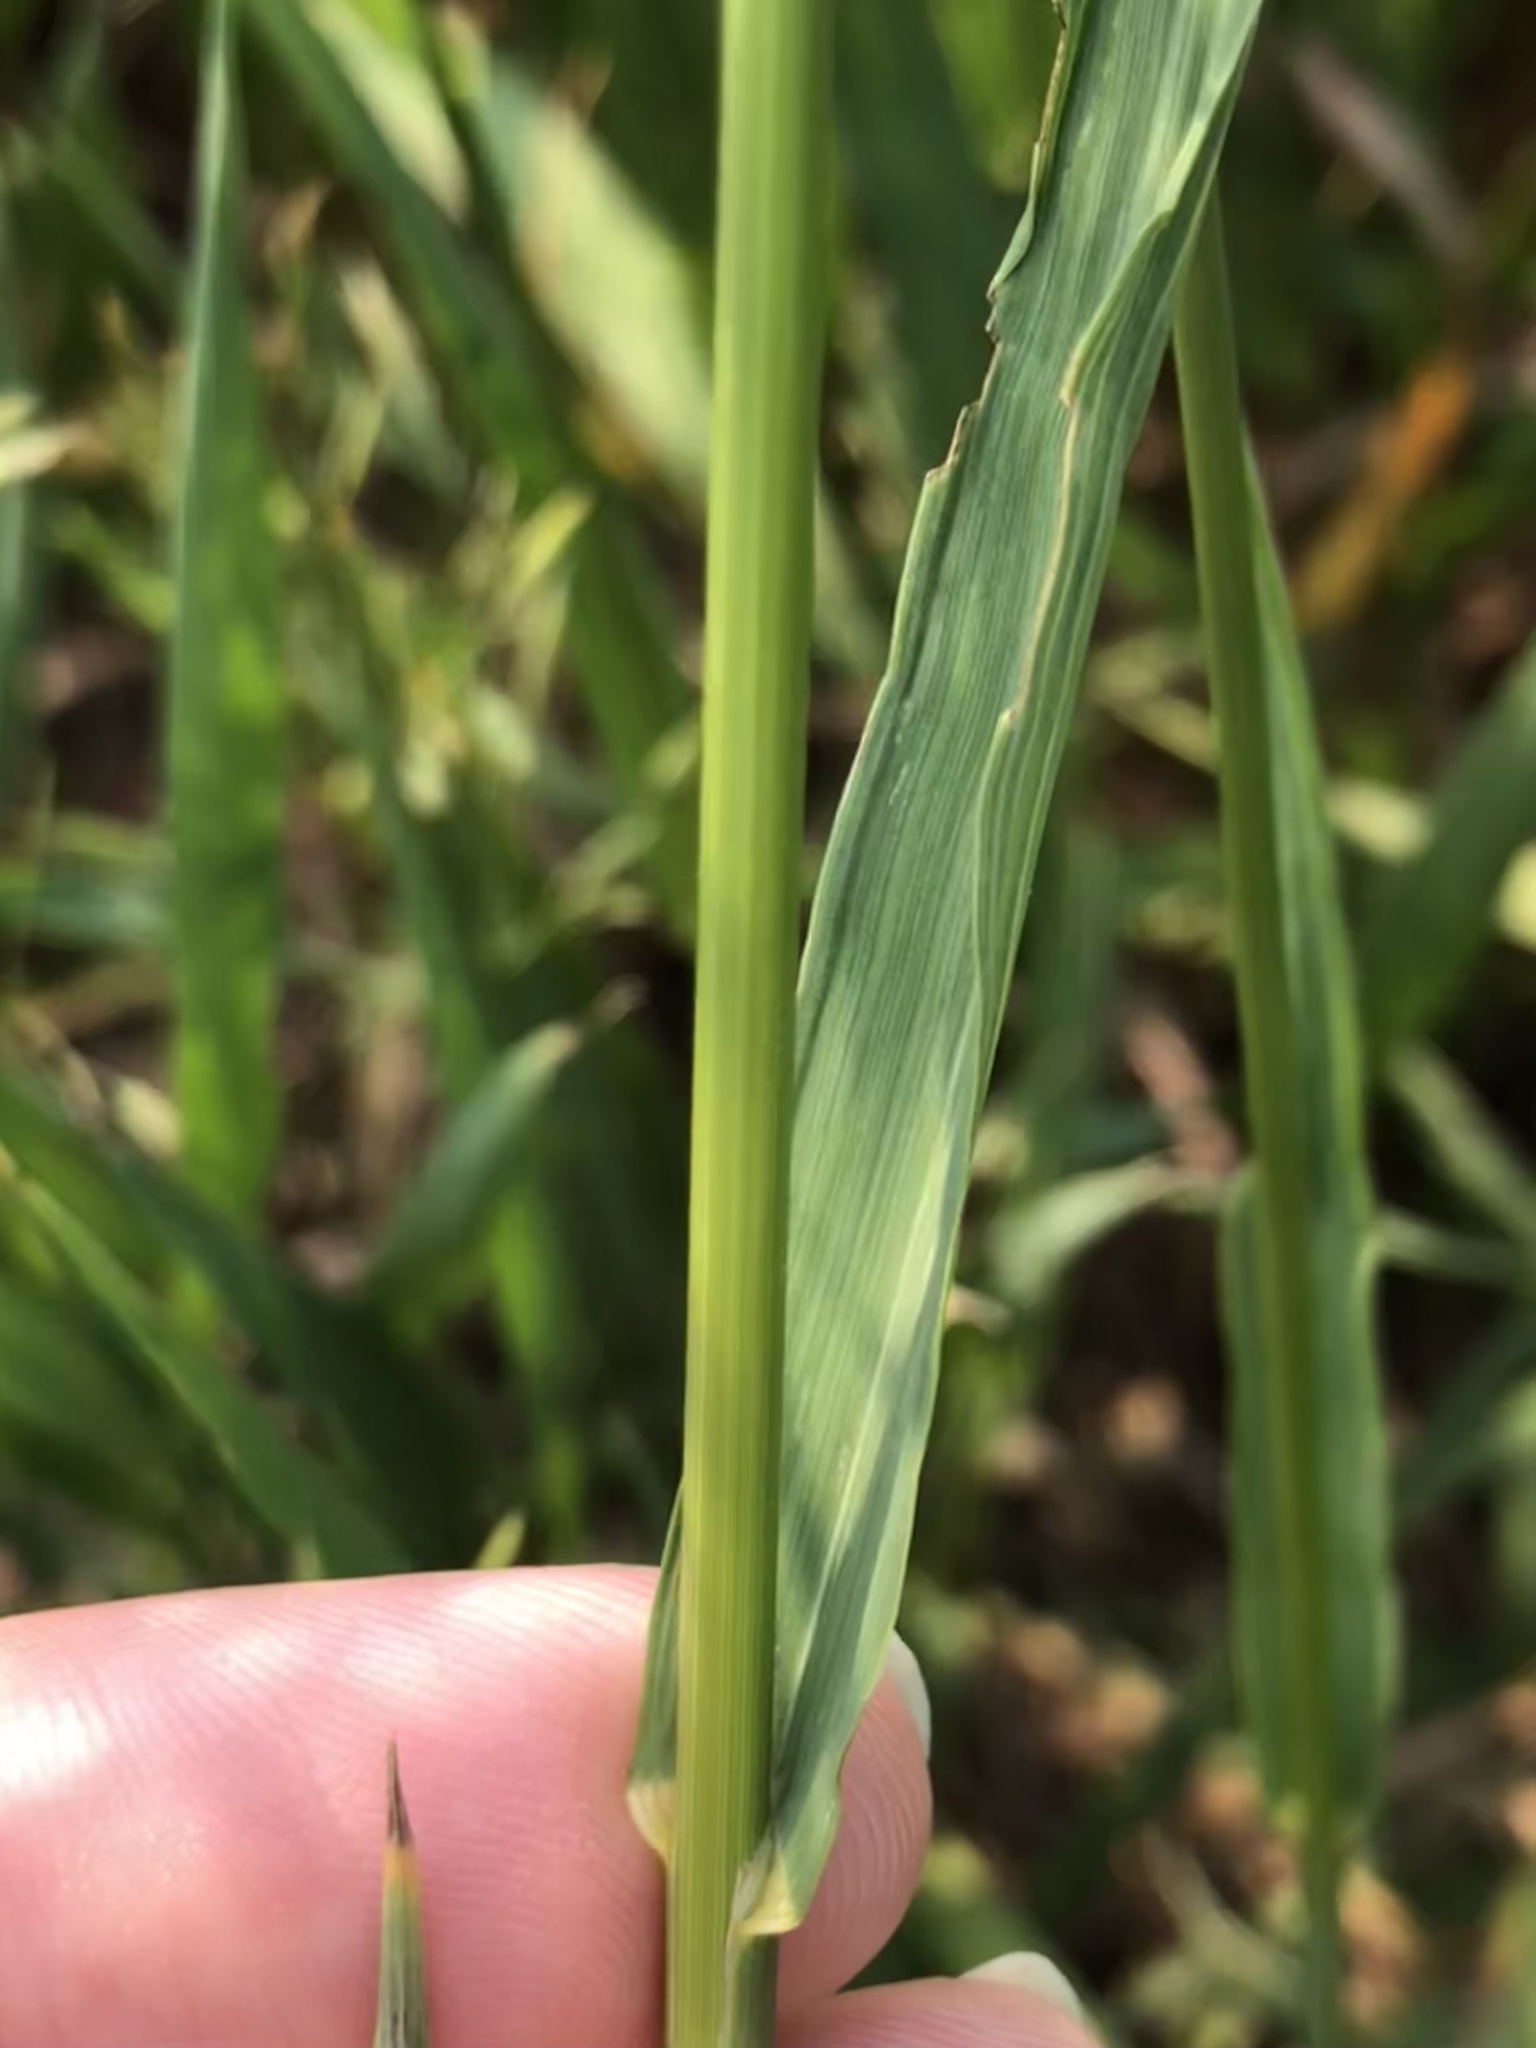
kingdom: Plantae
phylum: Tracheophyta
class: Liliopsida
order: Poales
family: Poaceae
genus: Bromus
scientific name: Bromus inermis
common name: Smooth brome
